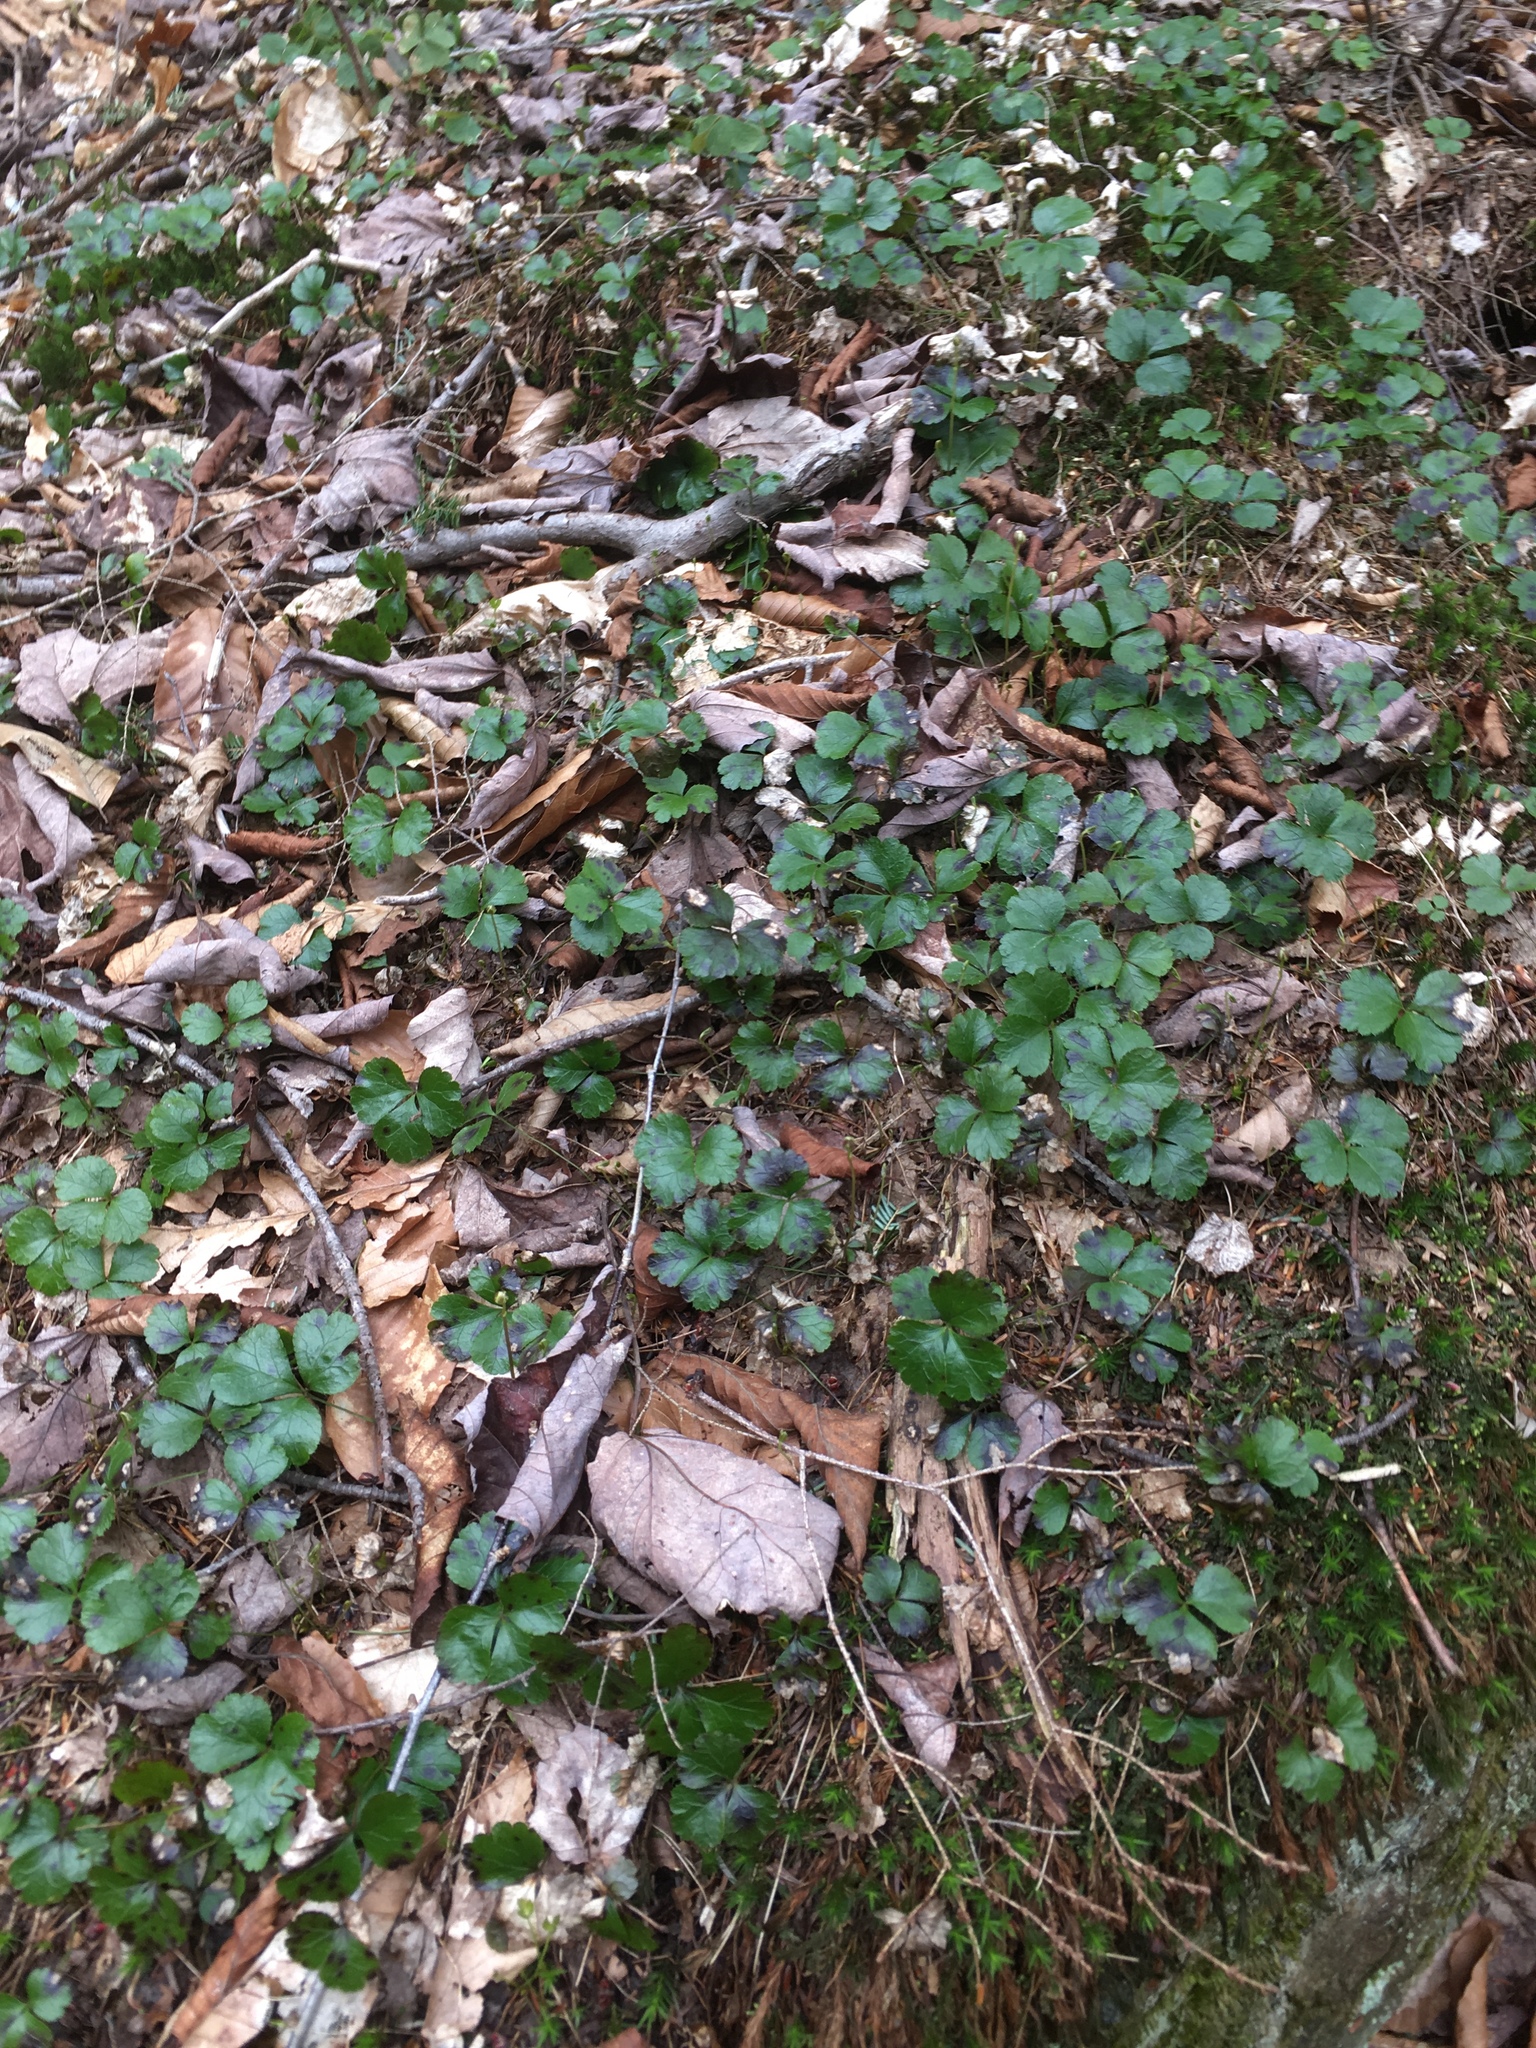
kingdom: Plantae
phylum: Tracheophyta
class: Magnoliopsida
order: Ranunculales
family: Ranunculaceae
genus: Coptis
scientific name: Coptis trifolia
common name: Canker-root
